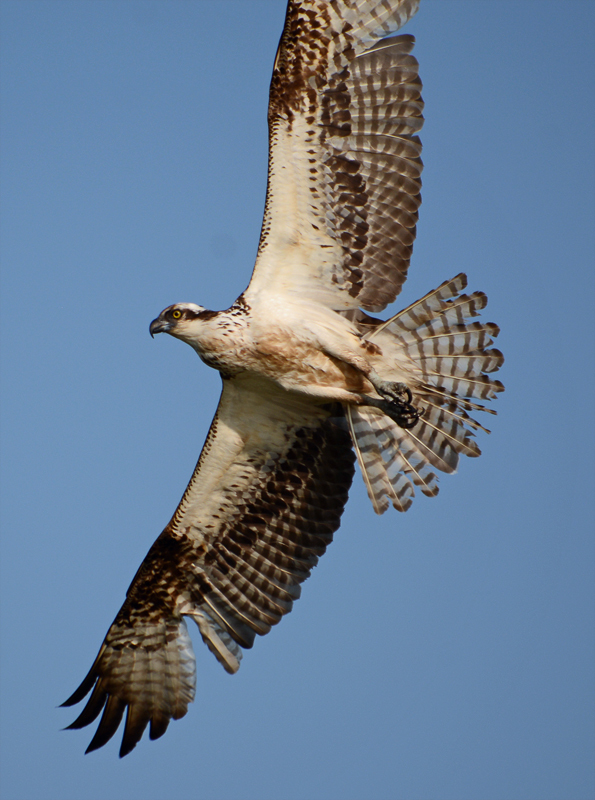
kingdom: Animalia
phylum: Chordata
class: Aves
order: Accipitriformes
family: Pandionidae
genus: Pandion
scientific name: Pandion haliaetus
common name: Osprey
